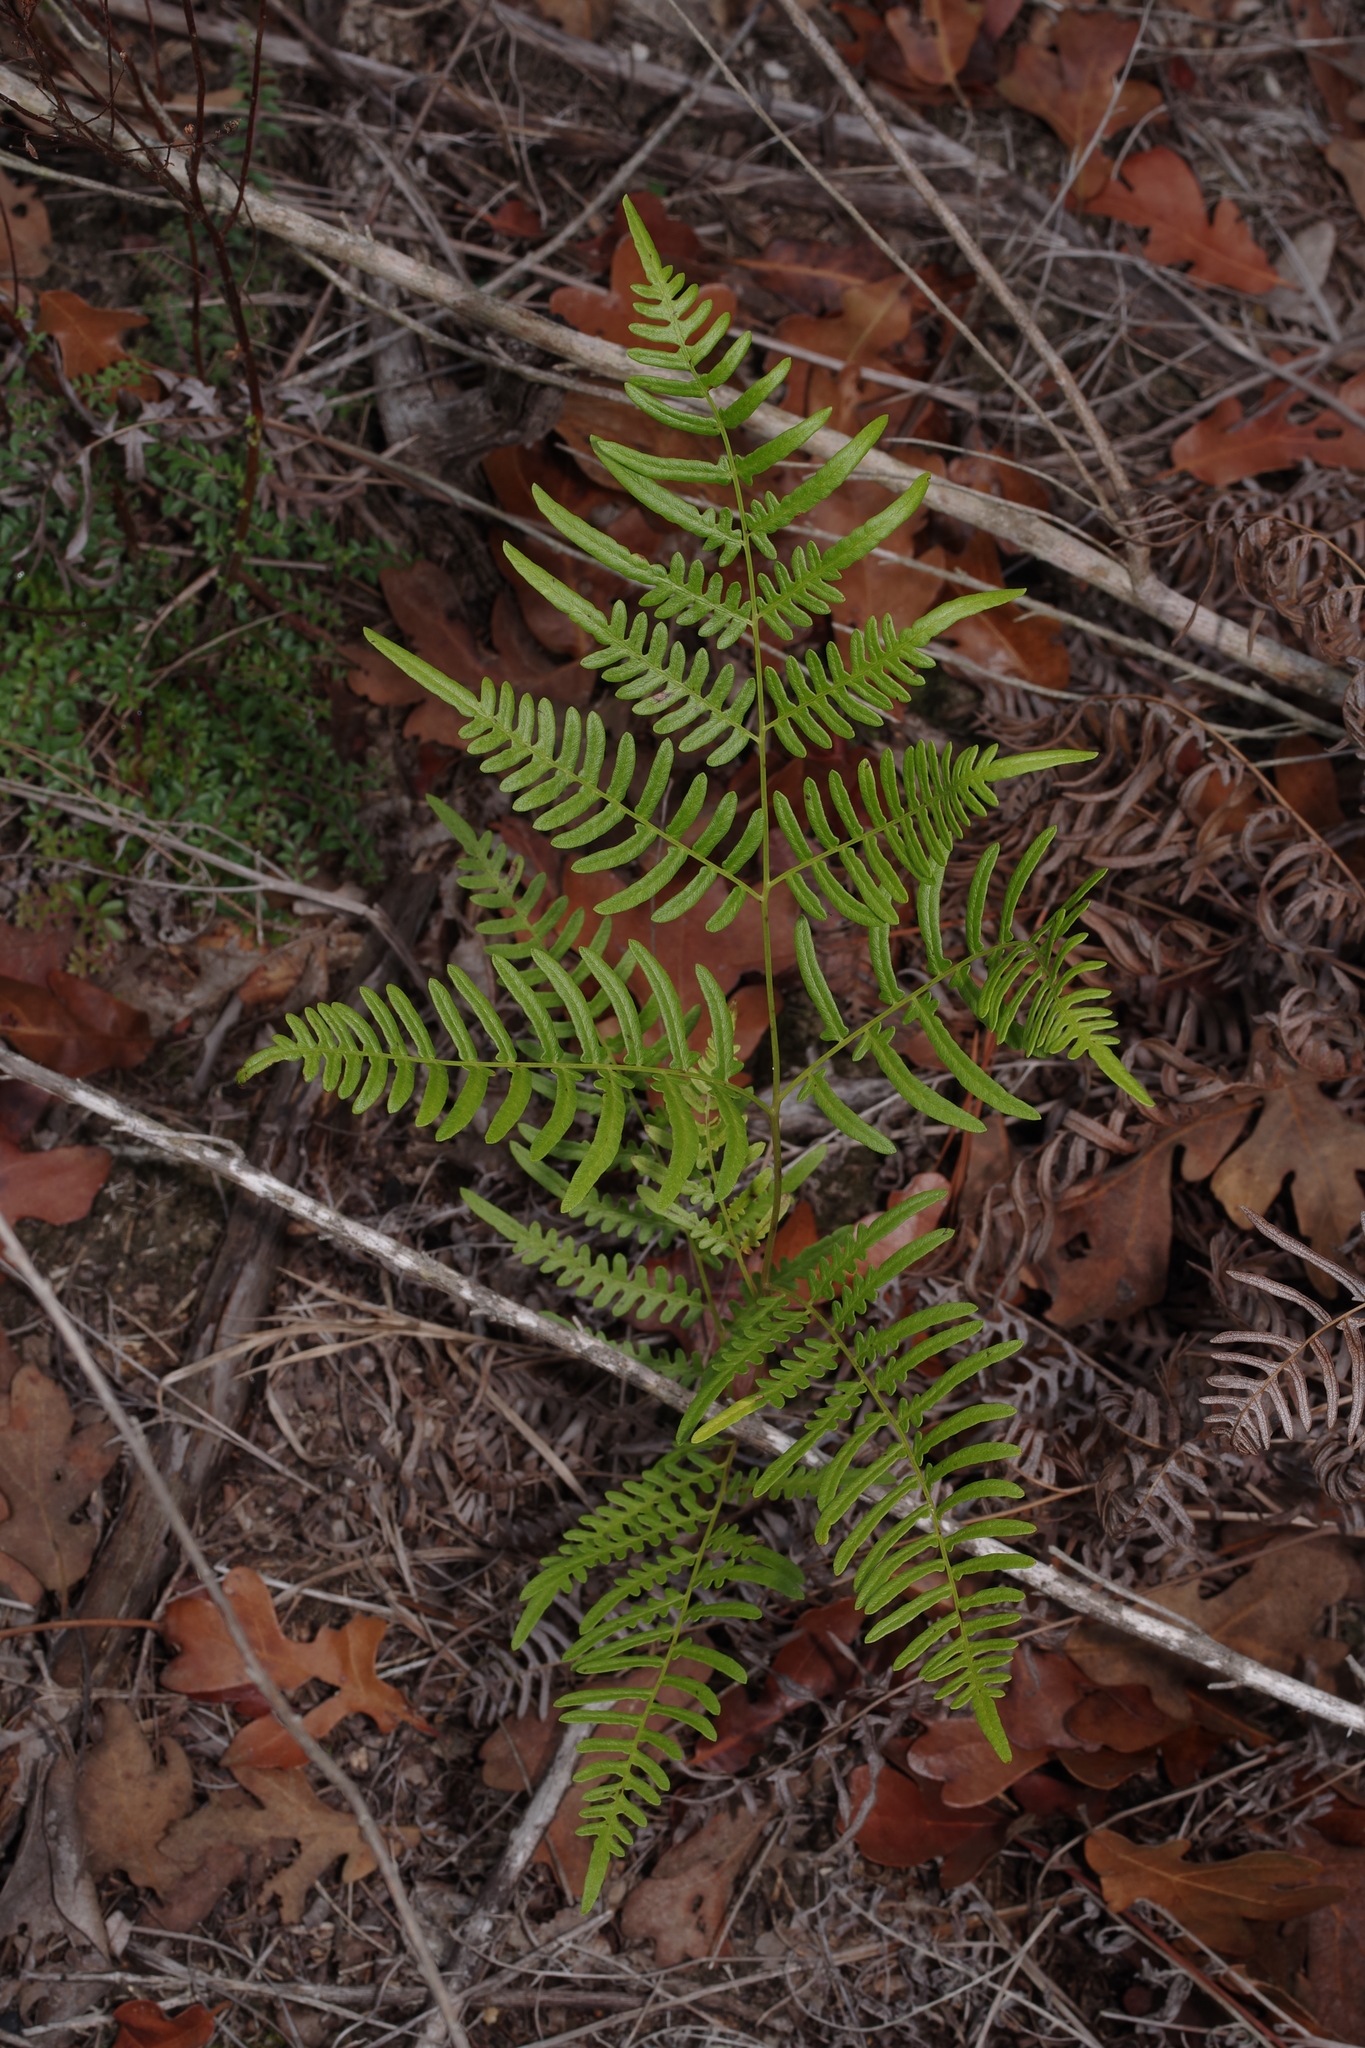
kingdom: Plantae
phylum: Tracheophyta
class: Polypodiopsida
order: Polypodiales
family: Dennstaedtiaceae
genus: Pteridium
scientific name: Pteridium aquilinum
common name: Bracken
